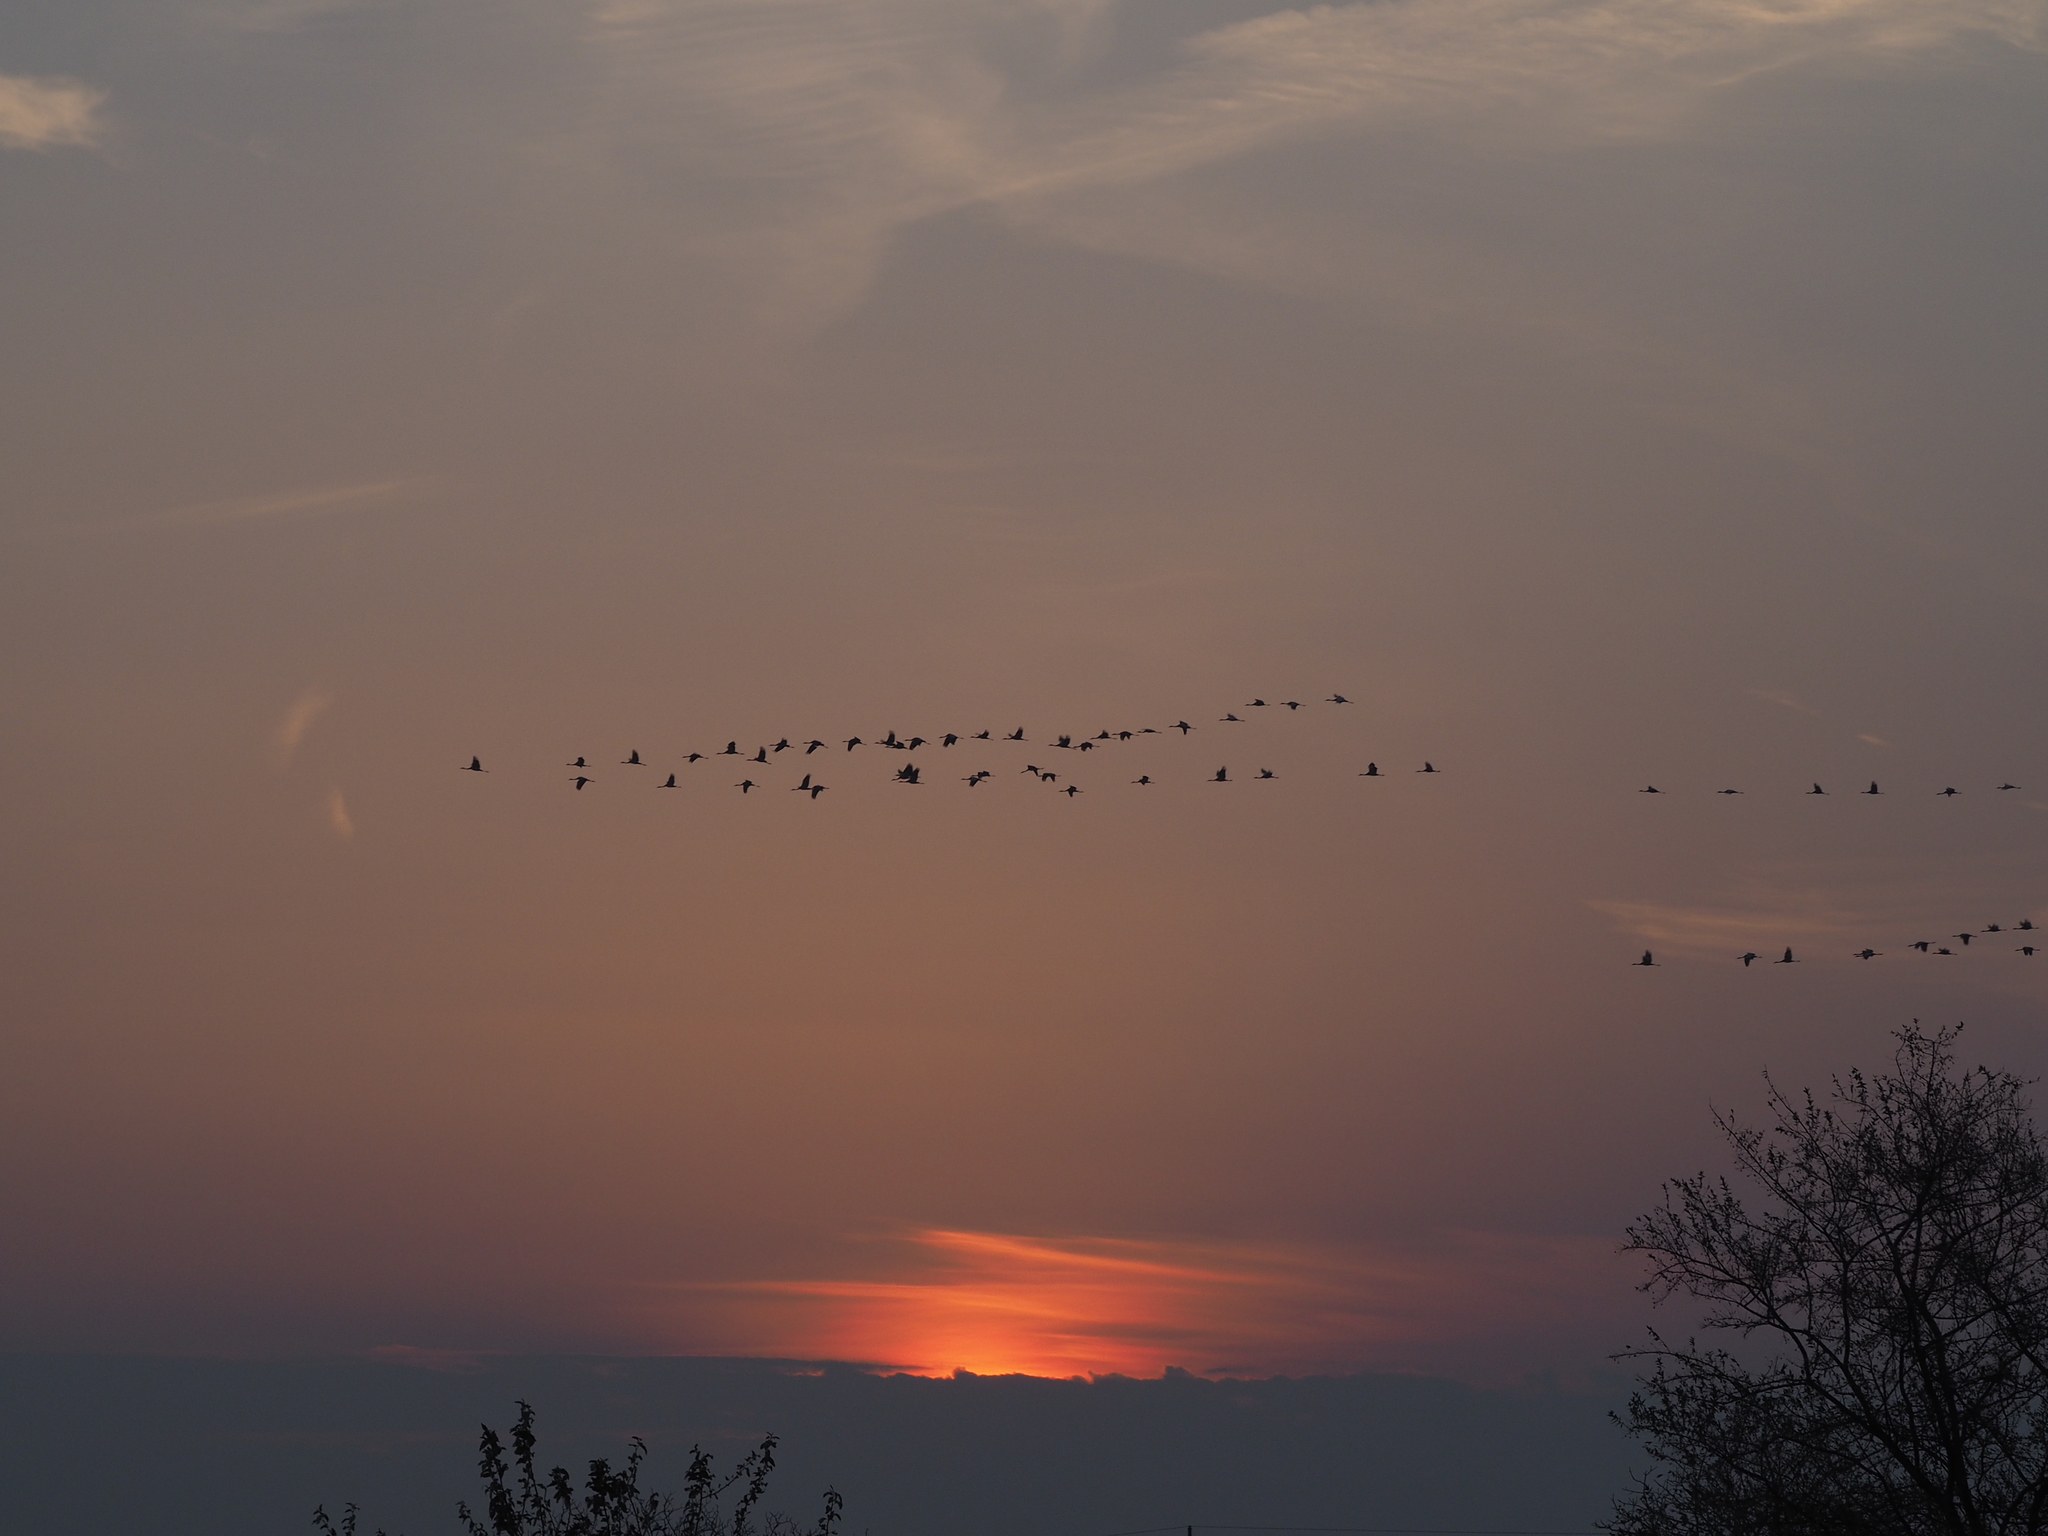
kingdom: Animalia
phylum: Chordata
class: Aves
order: Gruiformes
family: Gruidae
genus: Grus
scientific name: Grus grus
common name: Common crane
